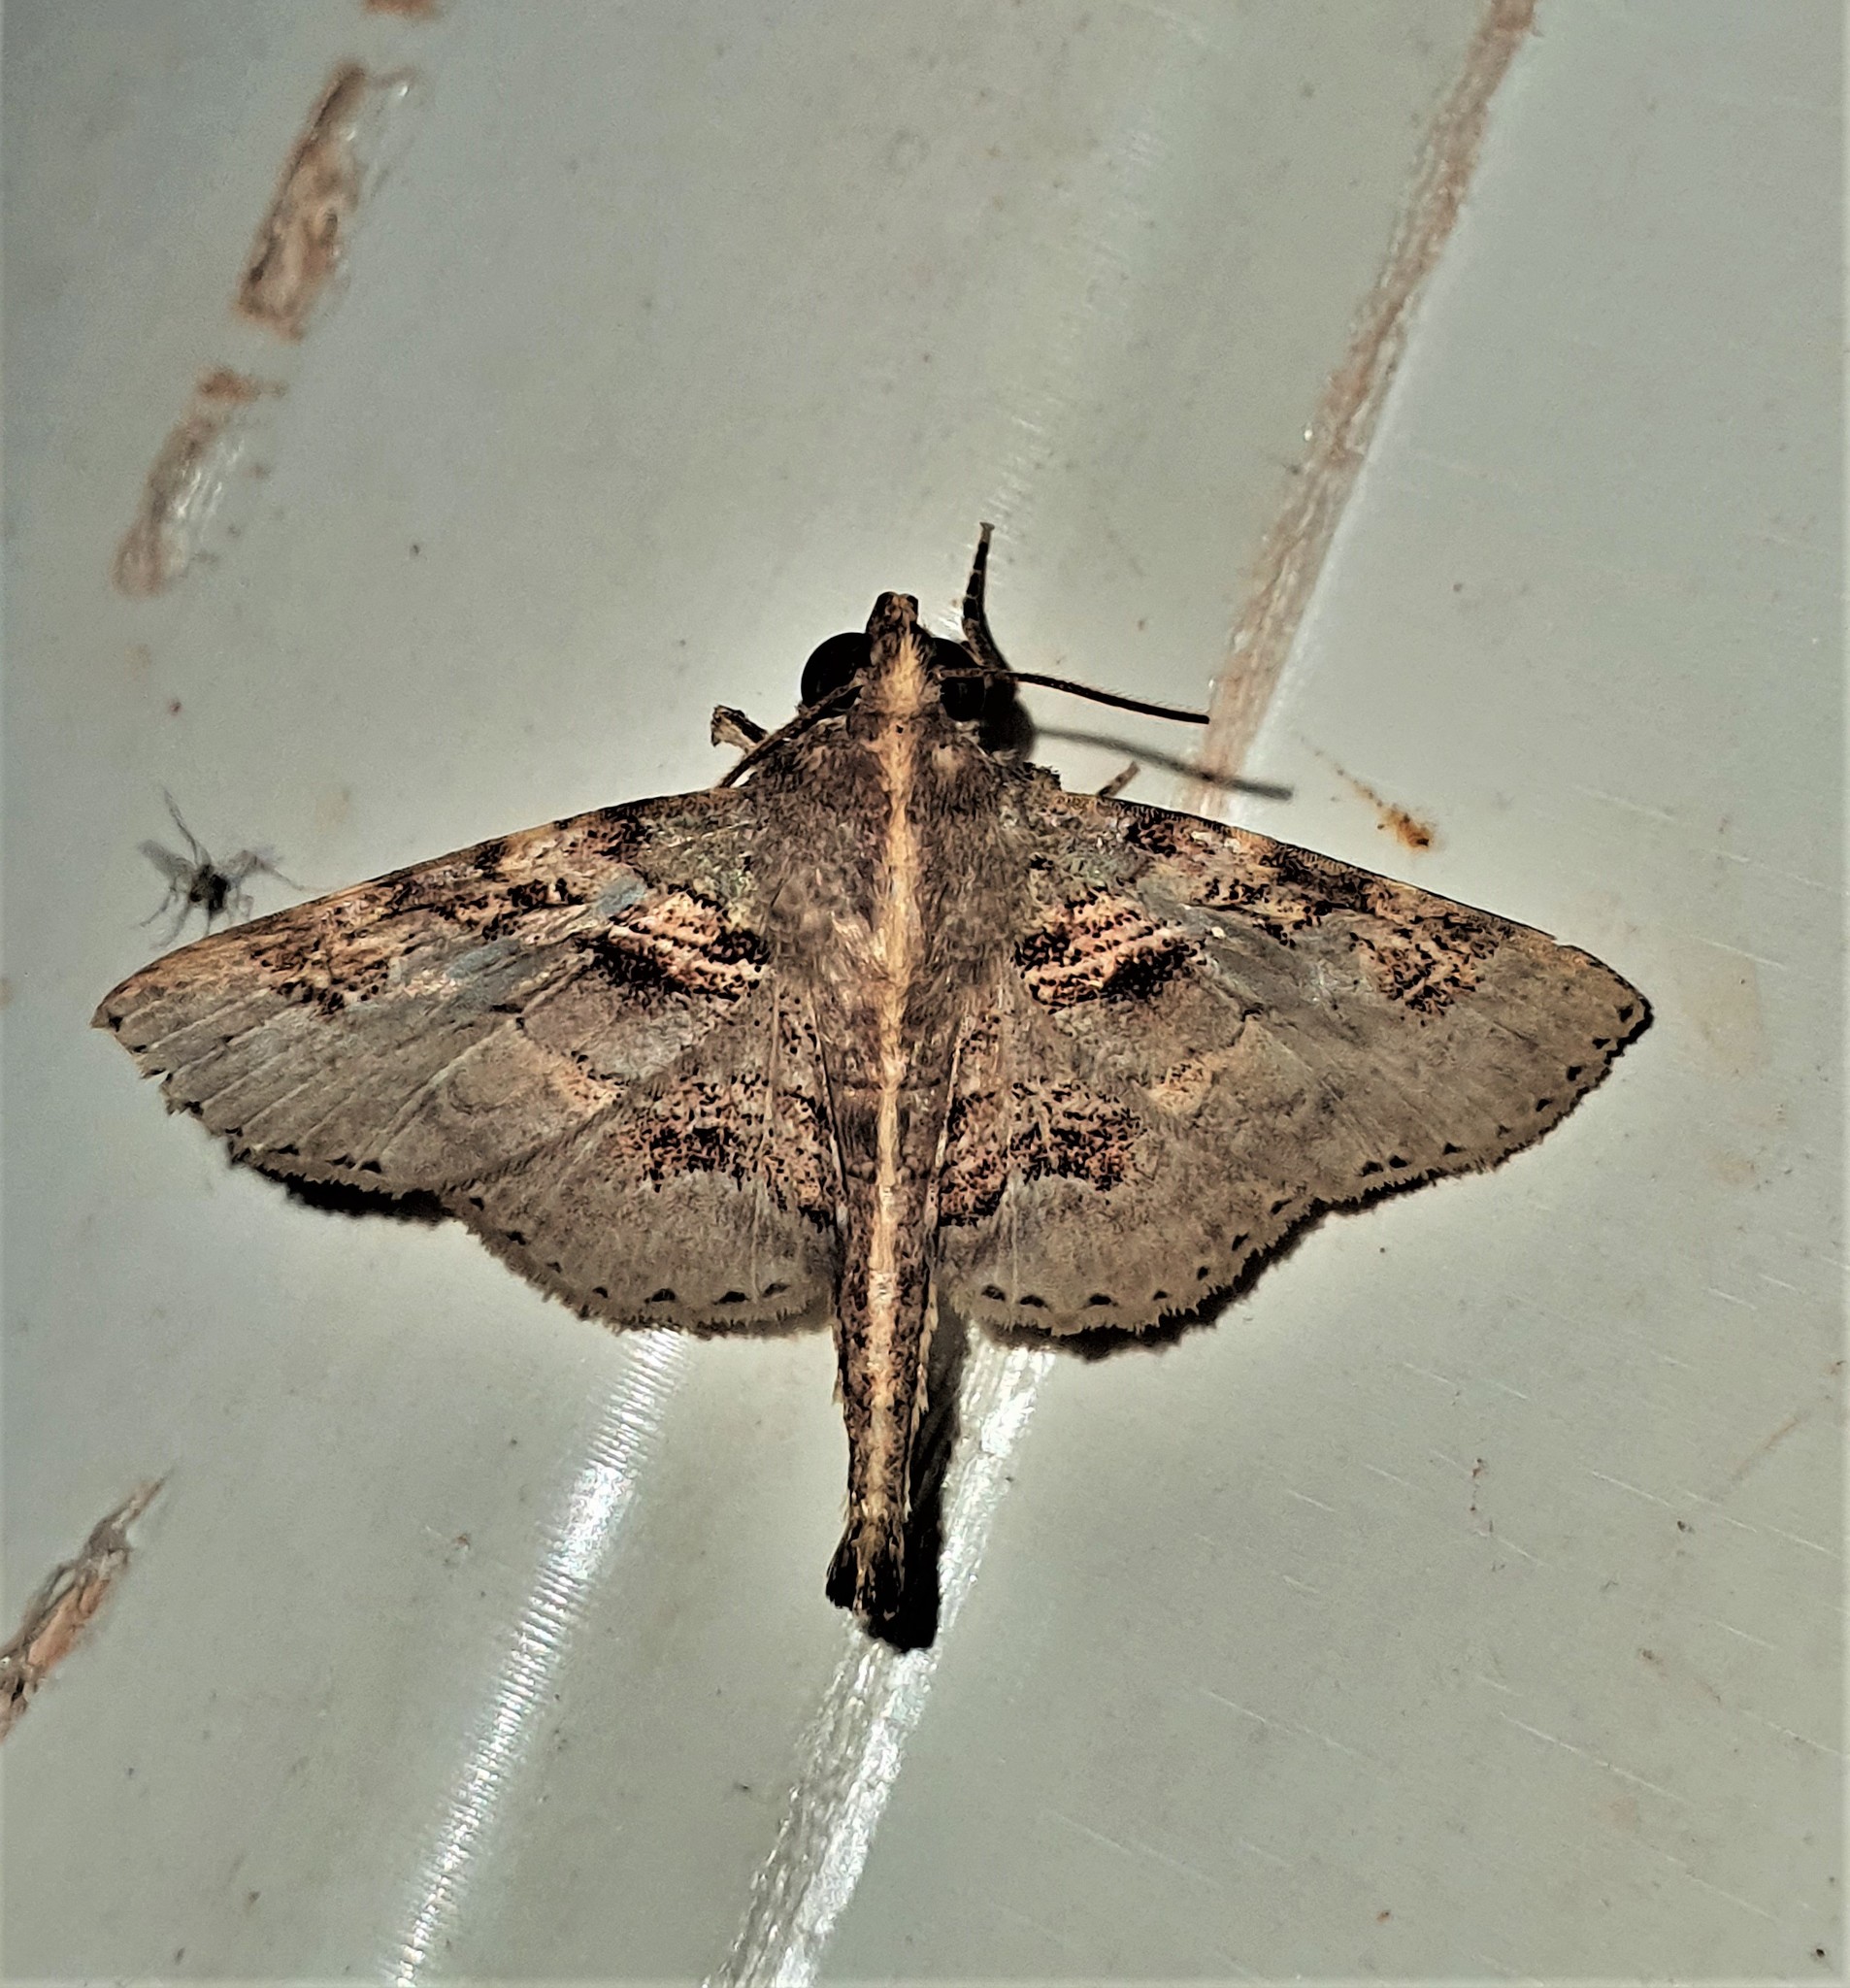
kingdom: Animalia
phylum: Arthropoda
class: Insecta
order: Lepidoptera
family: Erebidae
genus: Dolichosomastis
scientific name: Dolichosomastis dorsilinea
